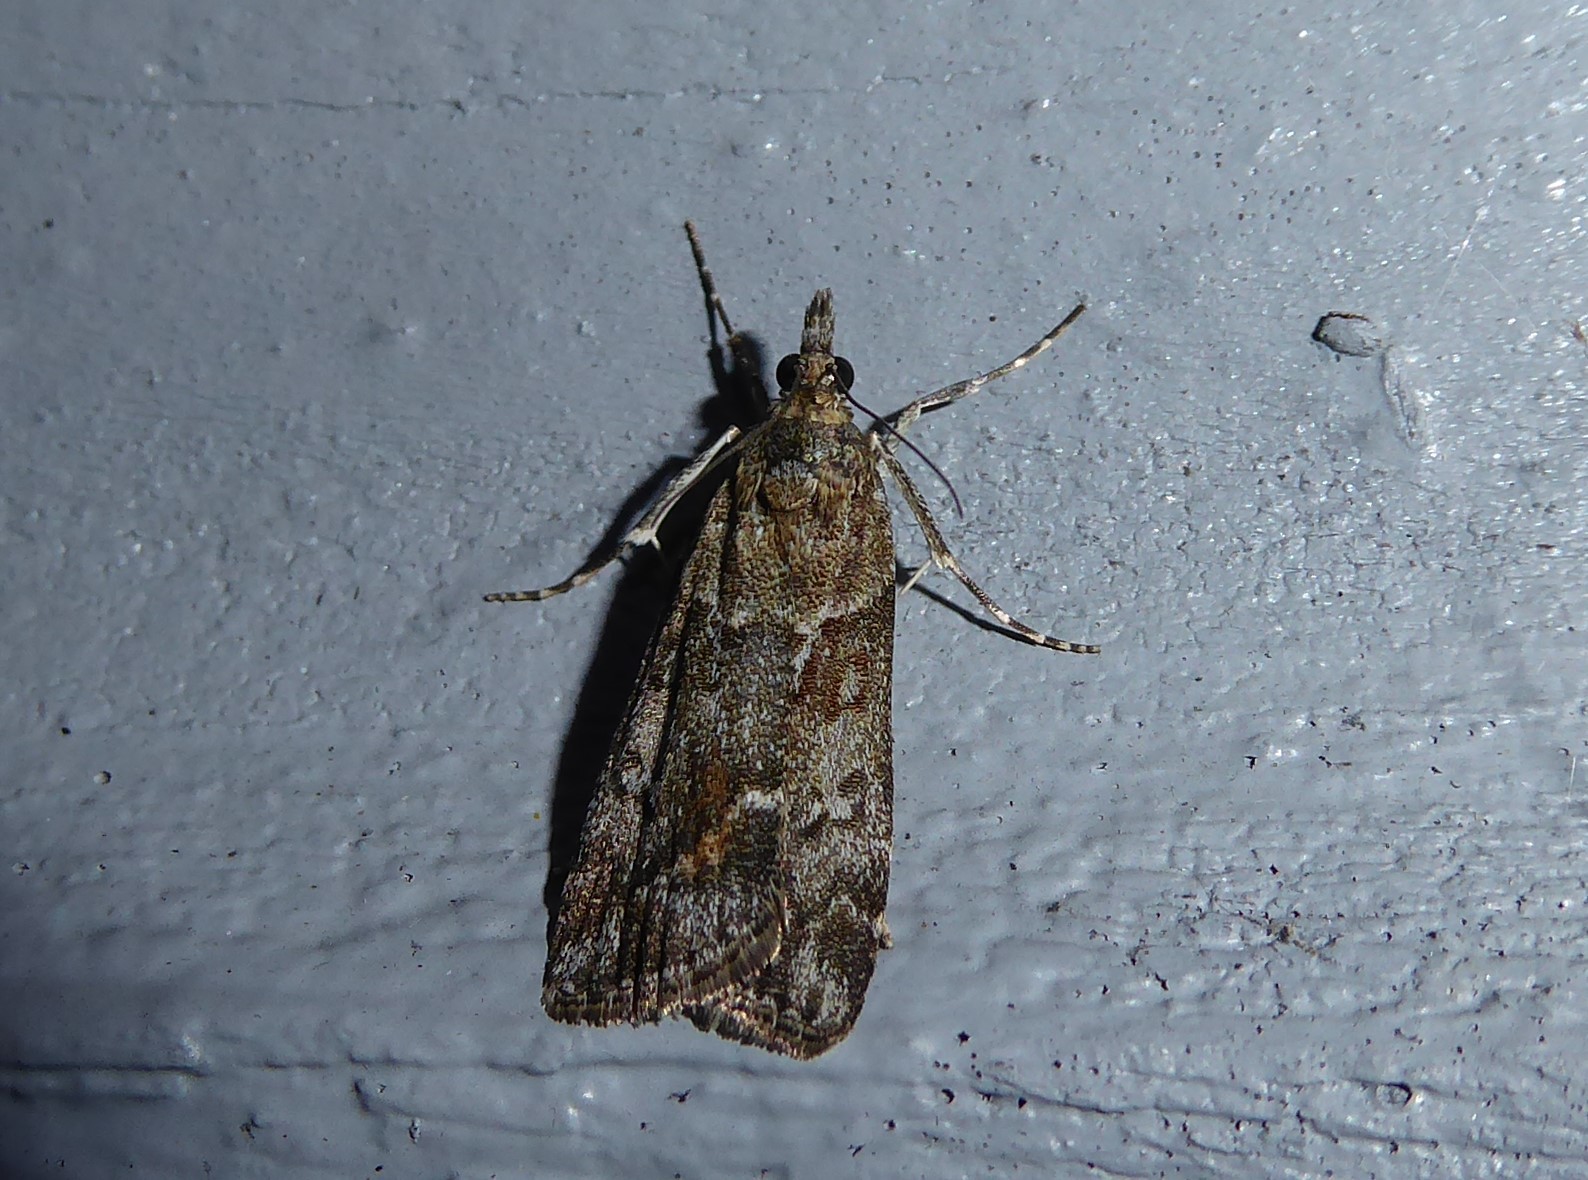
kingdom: Animalia
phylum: Arthropoda
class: Insecta
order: Lepidoptera
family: Crambidae
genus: Eudonia
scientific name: Eudonia submarginalis
